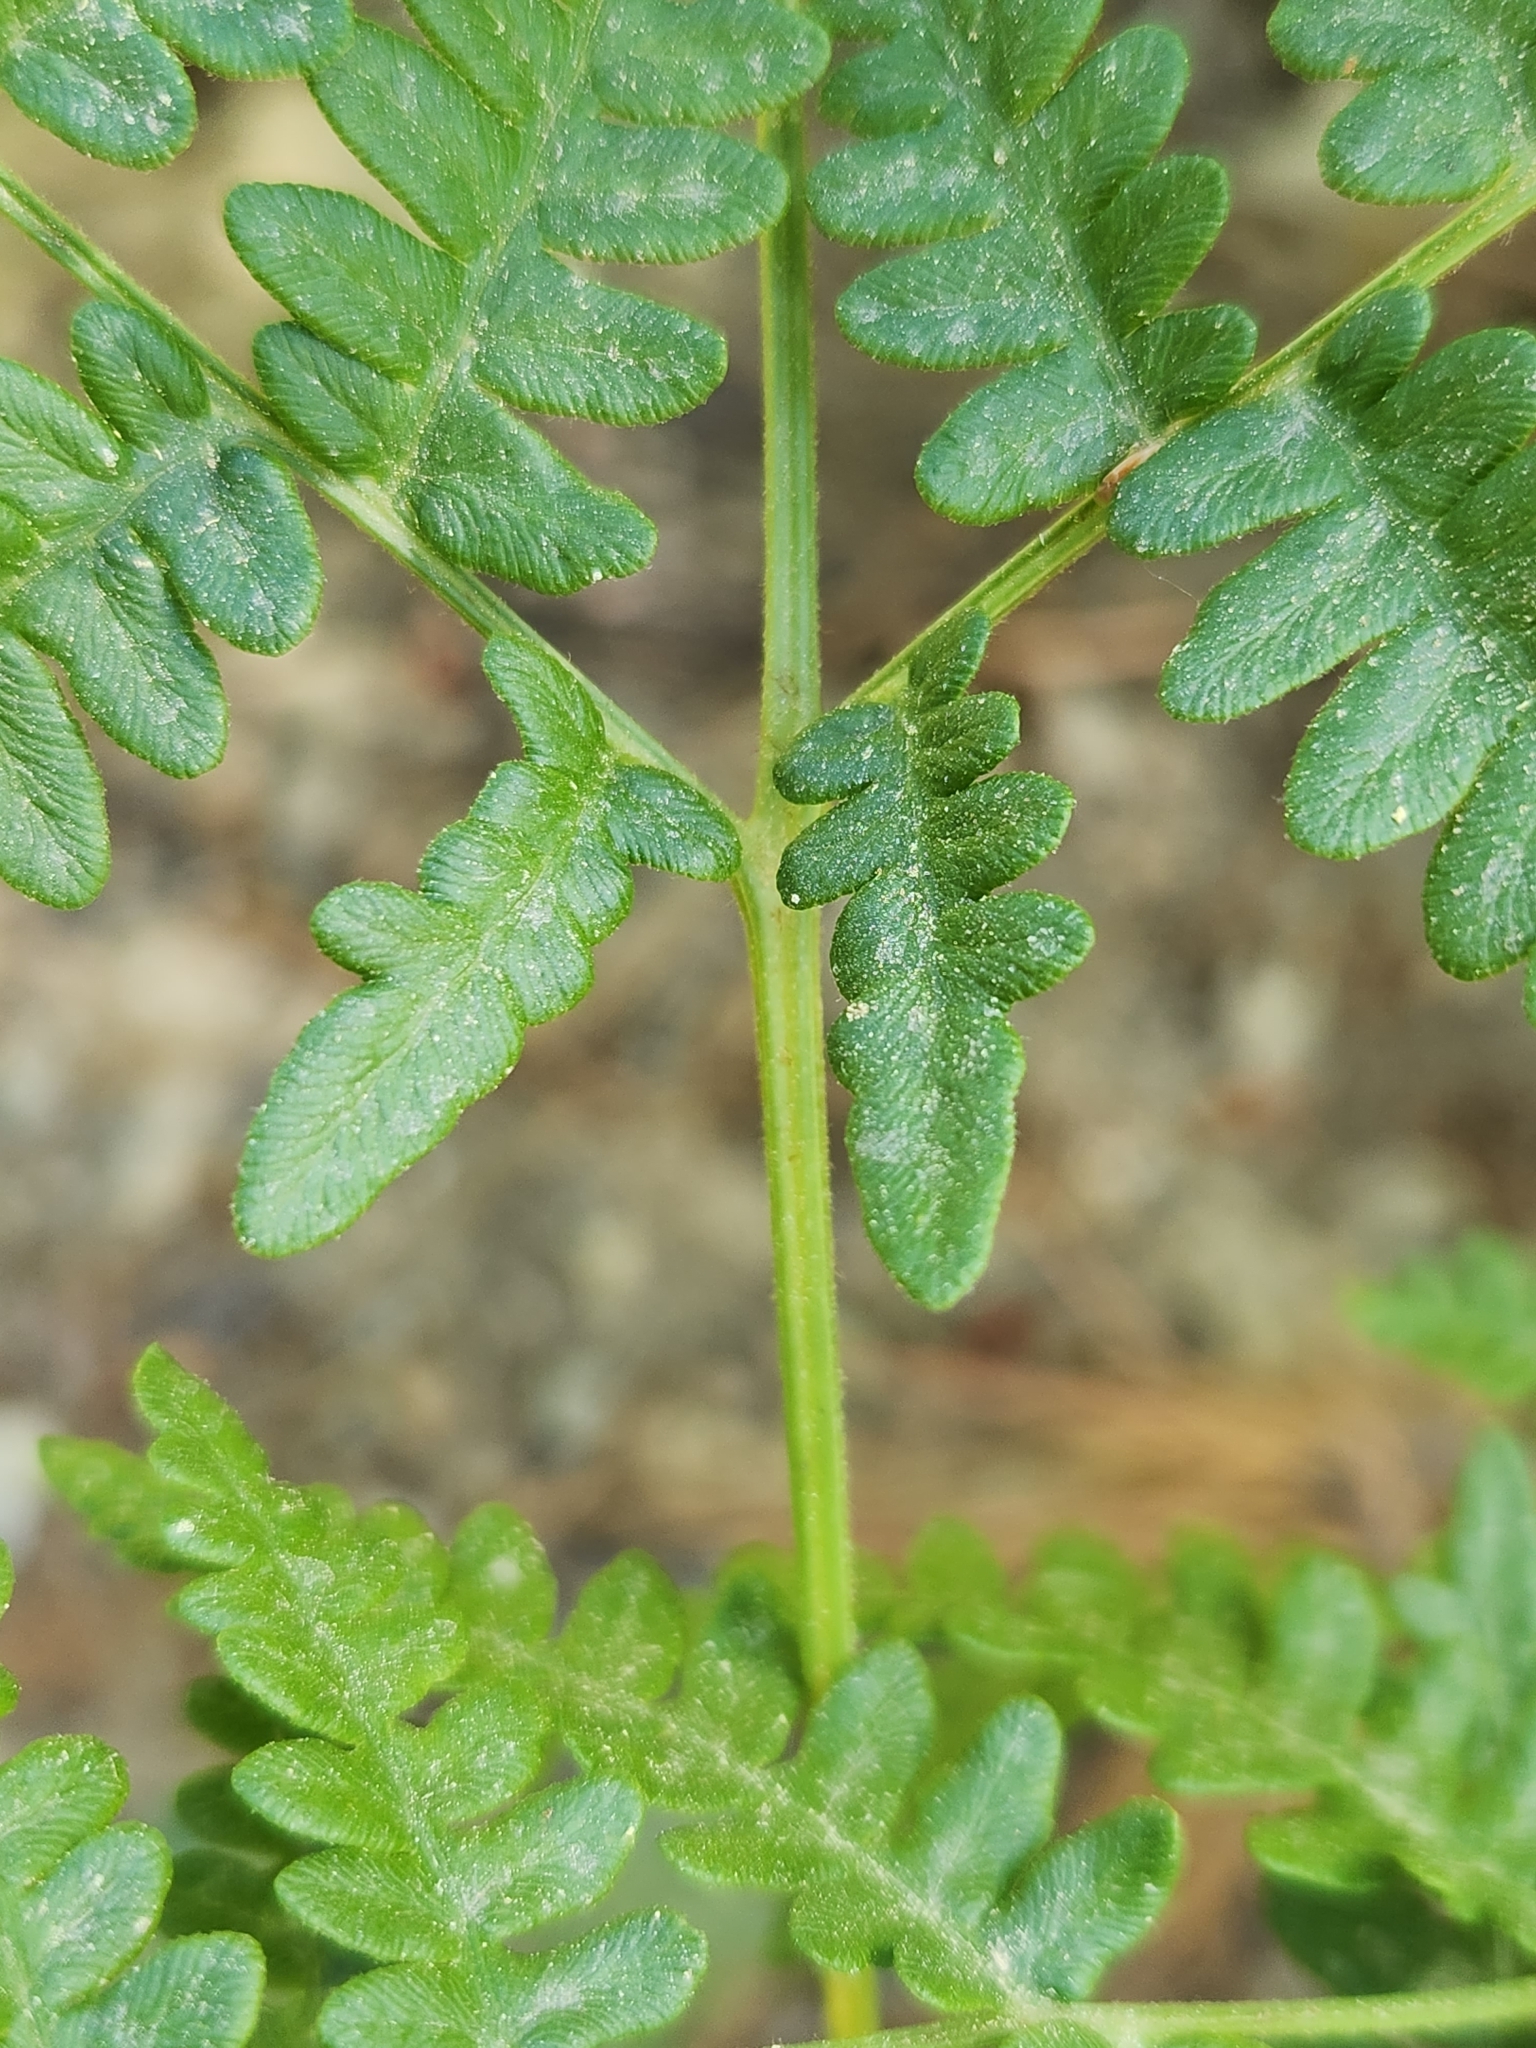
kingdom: Plantae
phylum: Tracheophyta
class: Polypodiopsida
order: Polypodiales
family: Dennstaedtiaceae
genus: Pteridium
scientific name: Pteridium aquilinum
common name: Bracken
